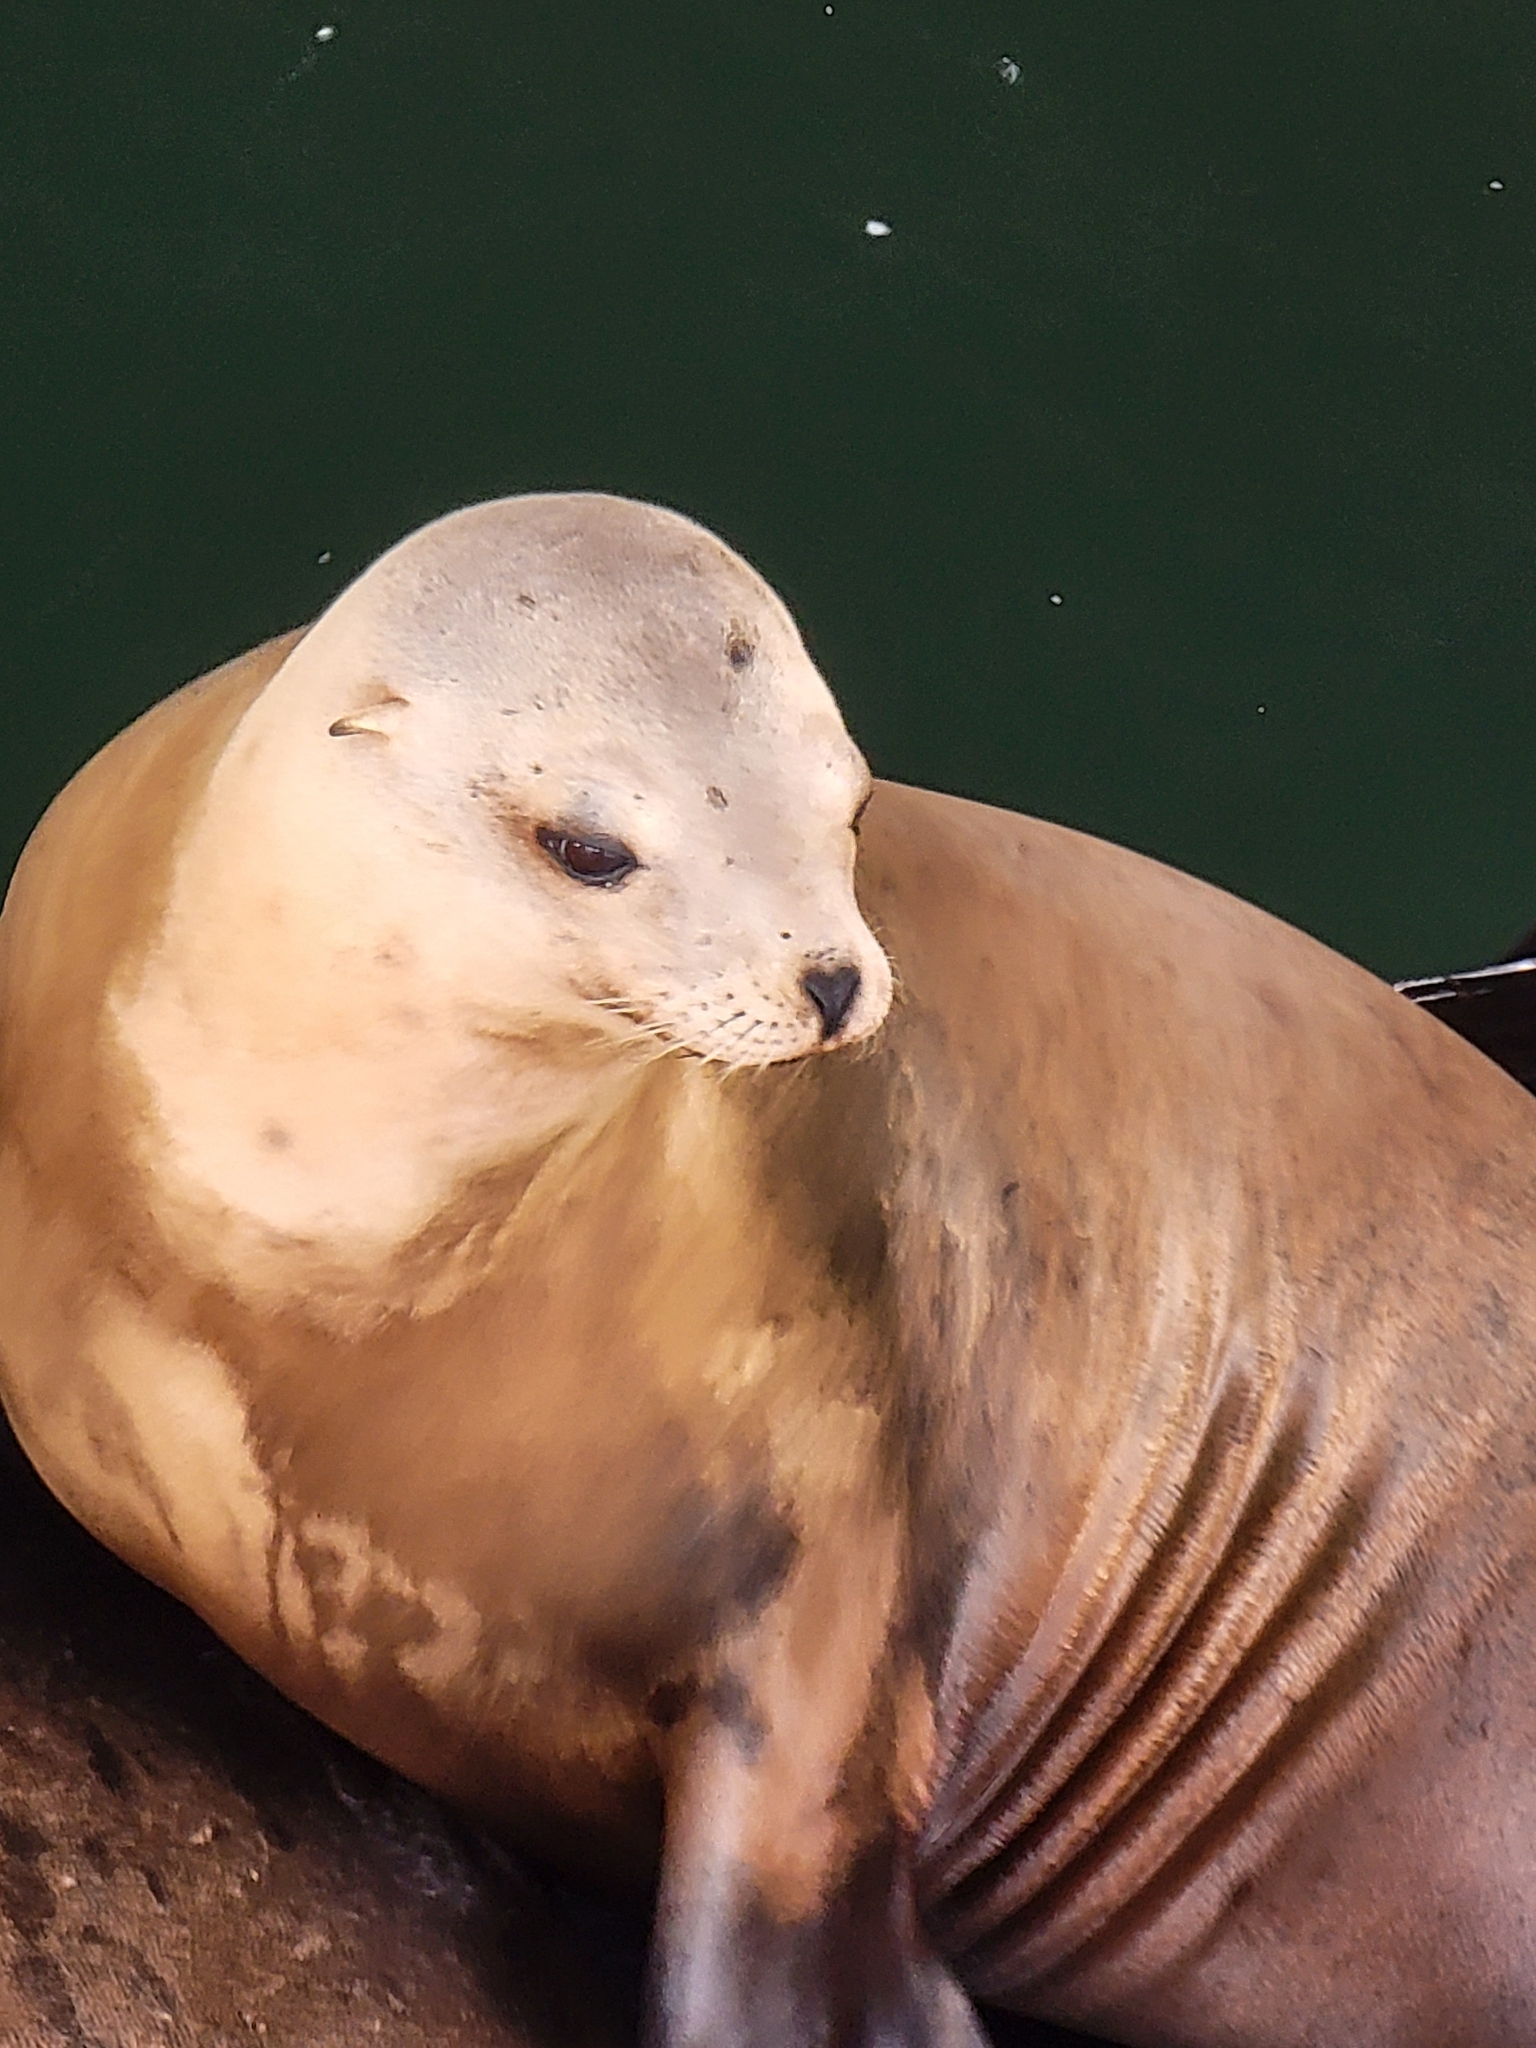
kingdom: Animalia
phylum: Chordata
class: Mammalia
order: Carnivora
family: Otariidae
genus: Zalophus
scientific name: Zalophus californianus
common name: California sea lion
